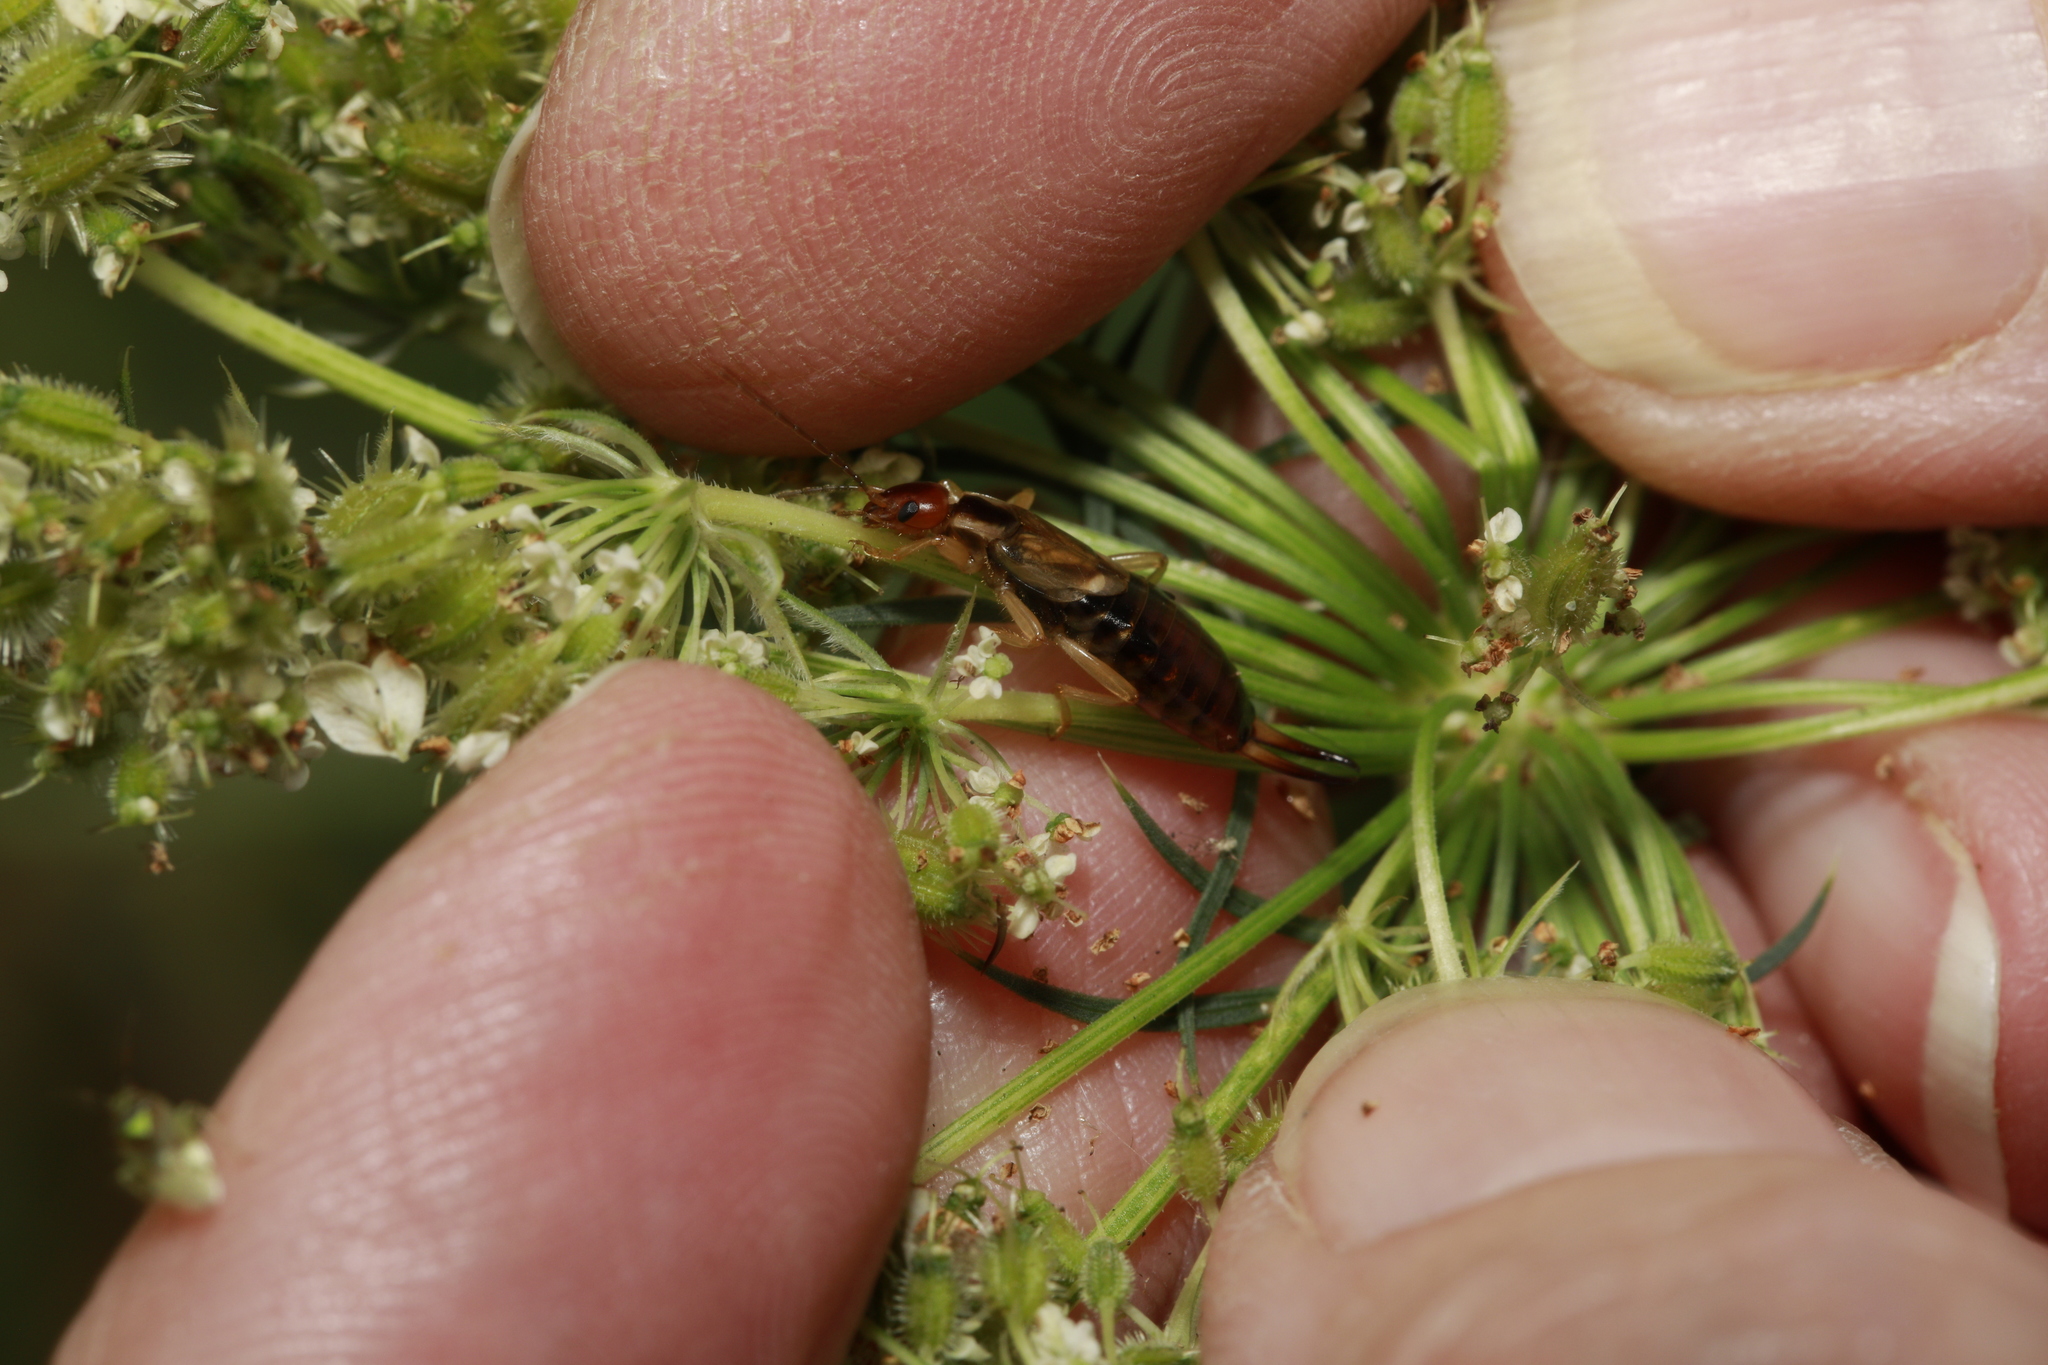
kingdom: Animalia
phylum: Arthropoda
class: Insecta
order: Dermaptera
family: Forficulidae
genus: Forficula
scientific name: Forficula
